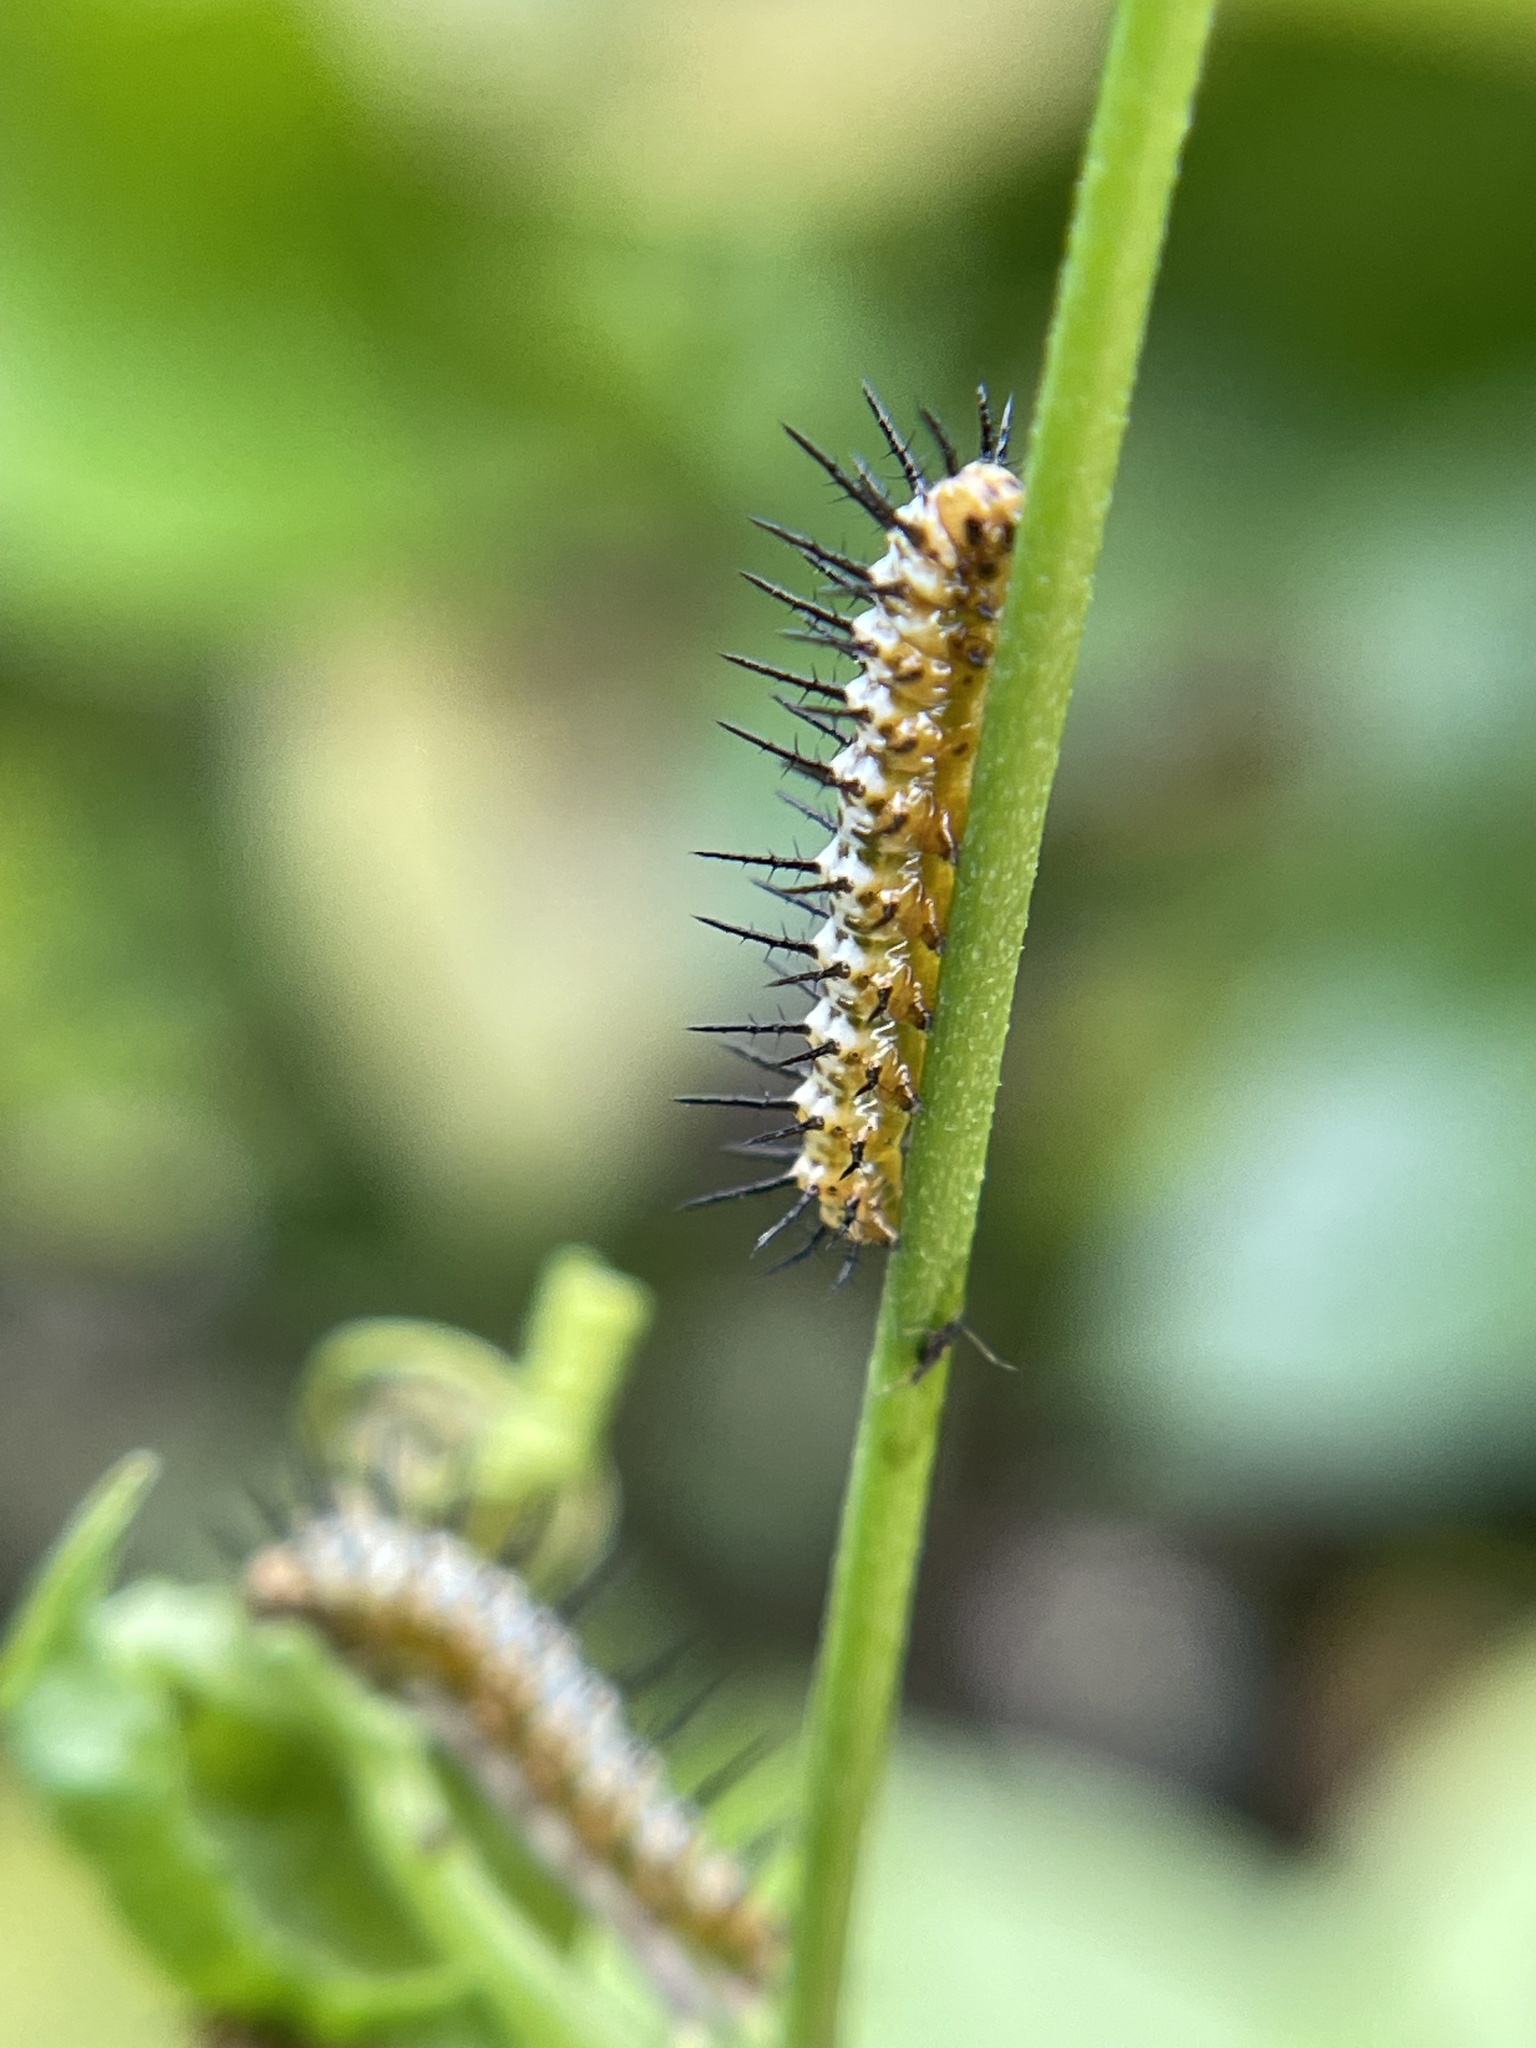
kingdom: Animalia
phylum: Arthropoda
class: Insecta
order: Lepidoptera
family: Nymphalidae
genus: Heliconius
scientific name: Heliconius charithonia
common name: Zebra long wing
